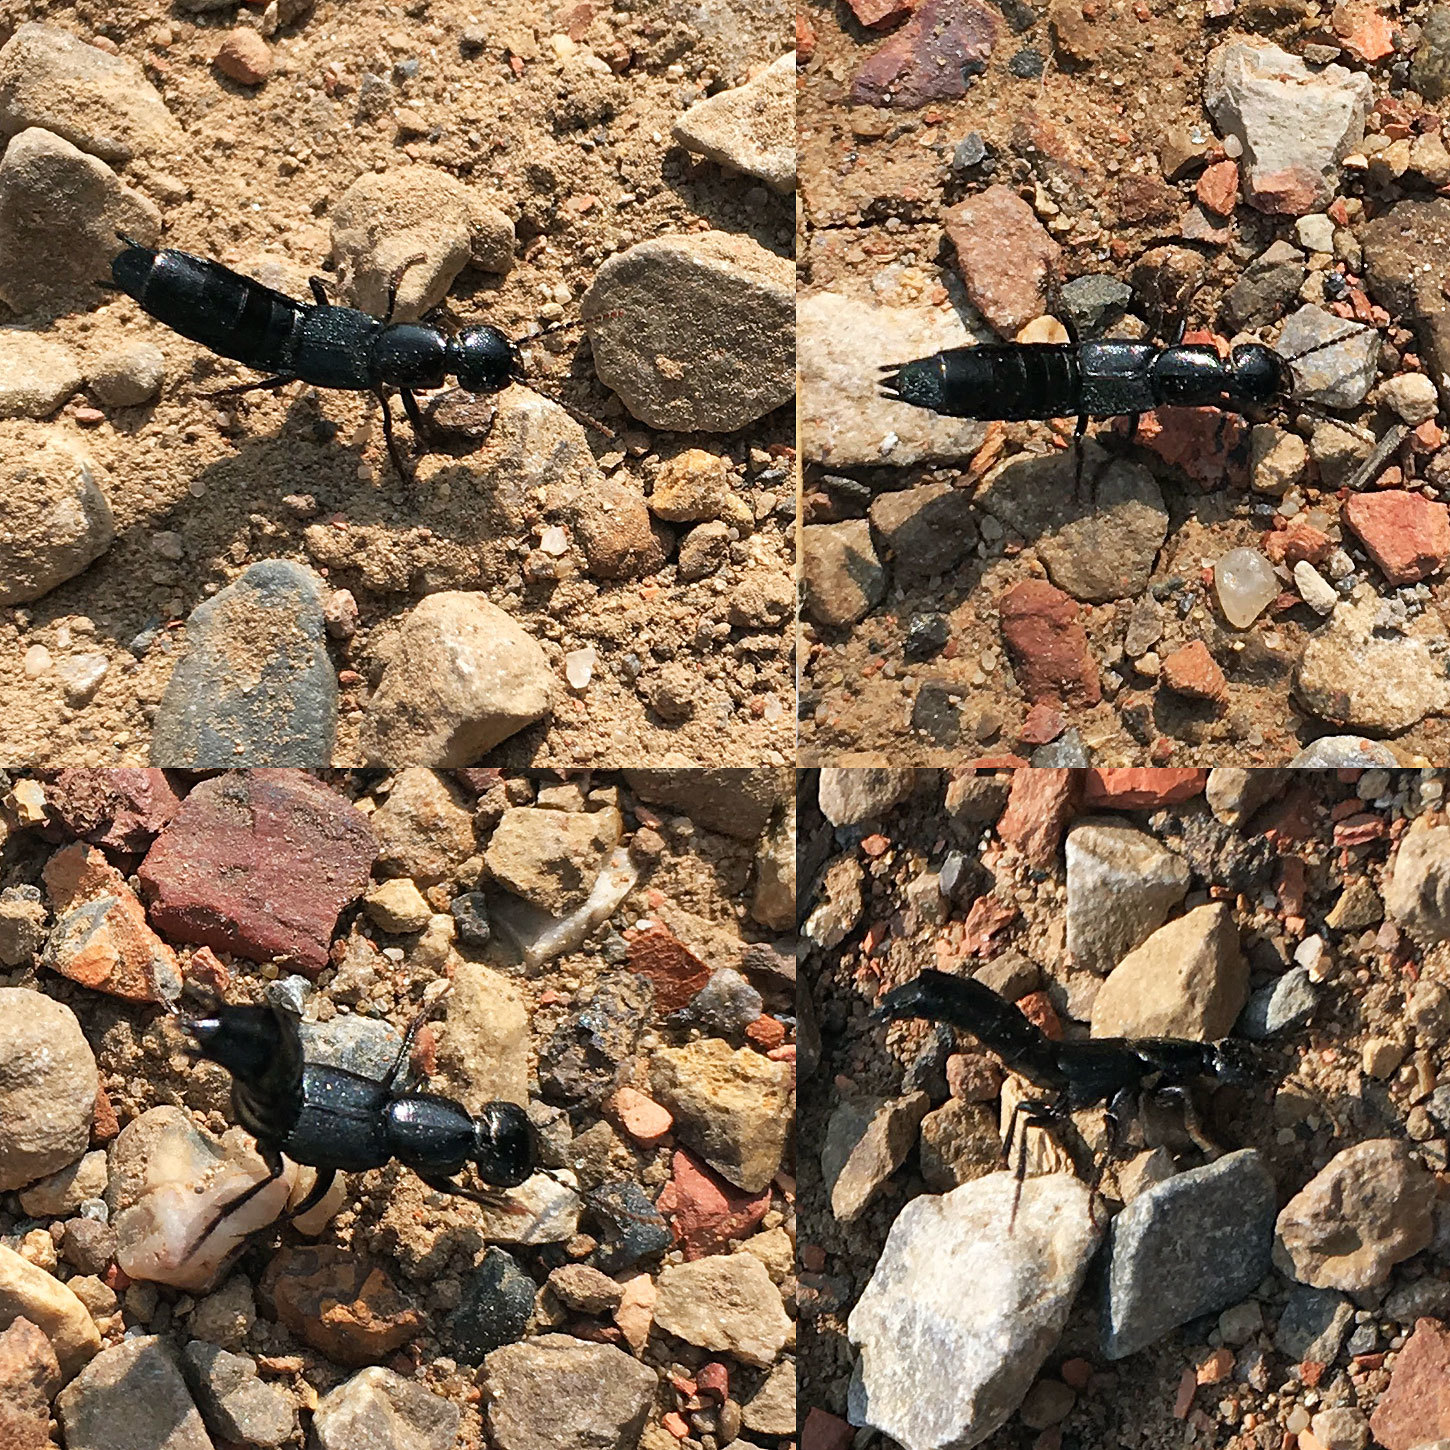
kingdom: Animalia
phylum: Arthropoda
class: Insecta
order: Coleoptera
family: Staphylinidae
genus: Tasgius
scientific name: Tasgius ater
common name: Staph beetle
